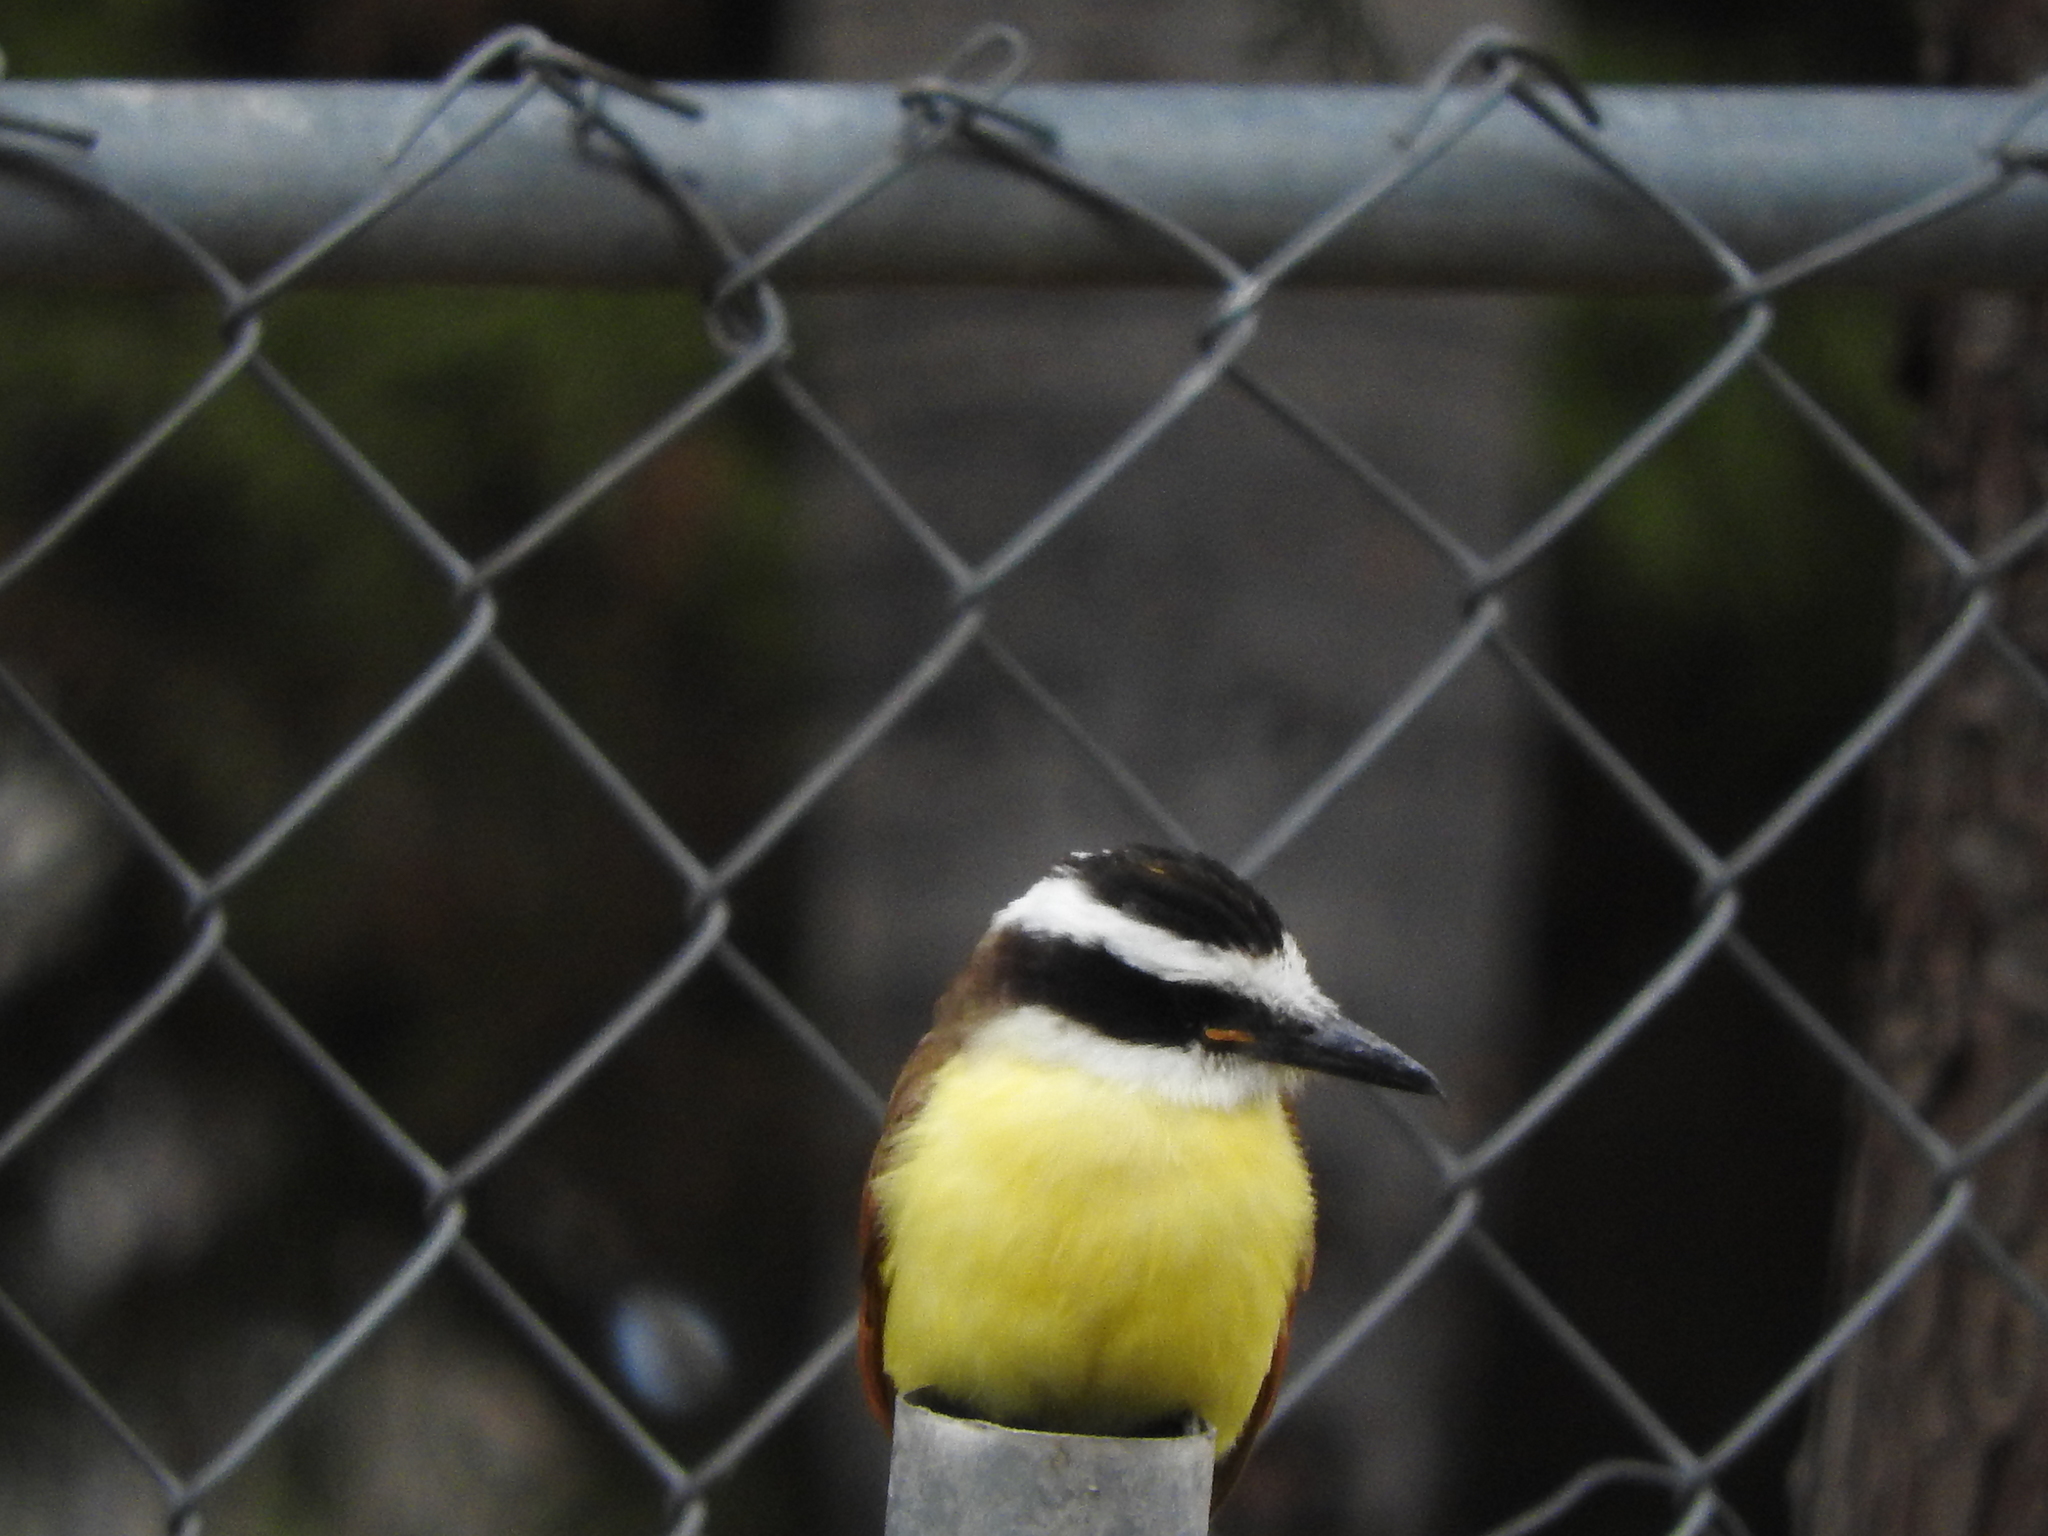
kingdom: Animalia
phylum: Chordata
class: Aves
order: Passeriformes
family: Tyrannidae
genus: Pitangus
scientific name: Pitangus sulphuratus
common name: Great kiskadee
